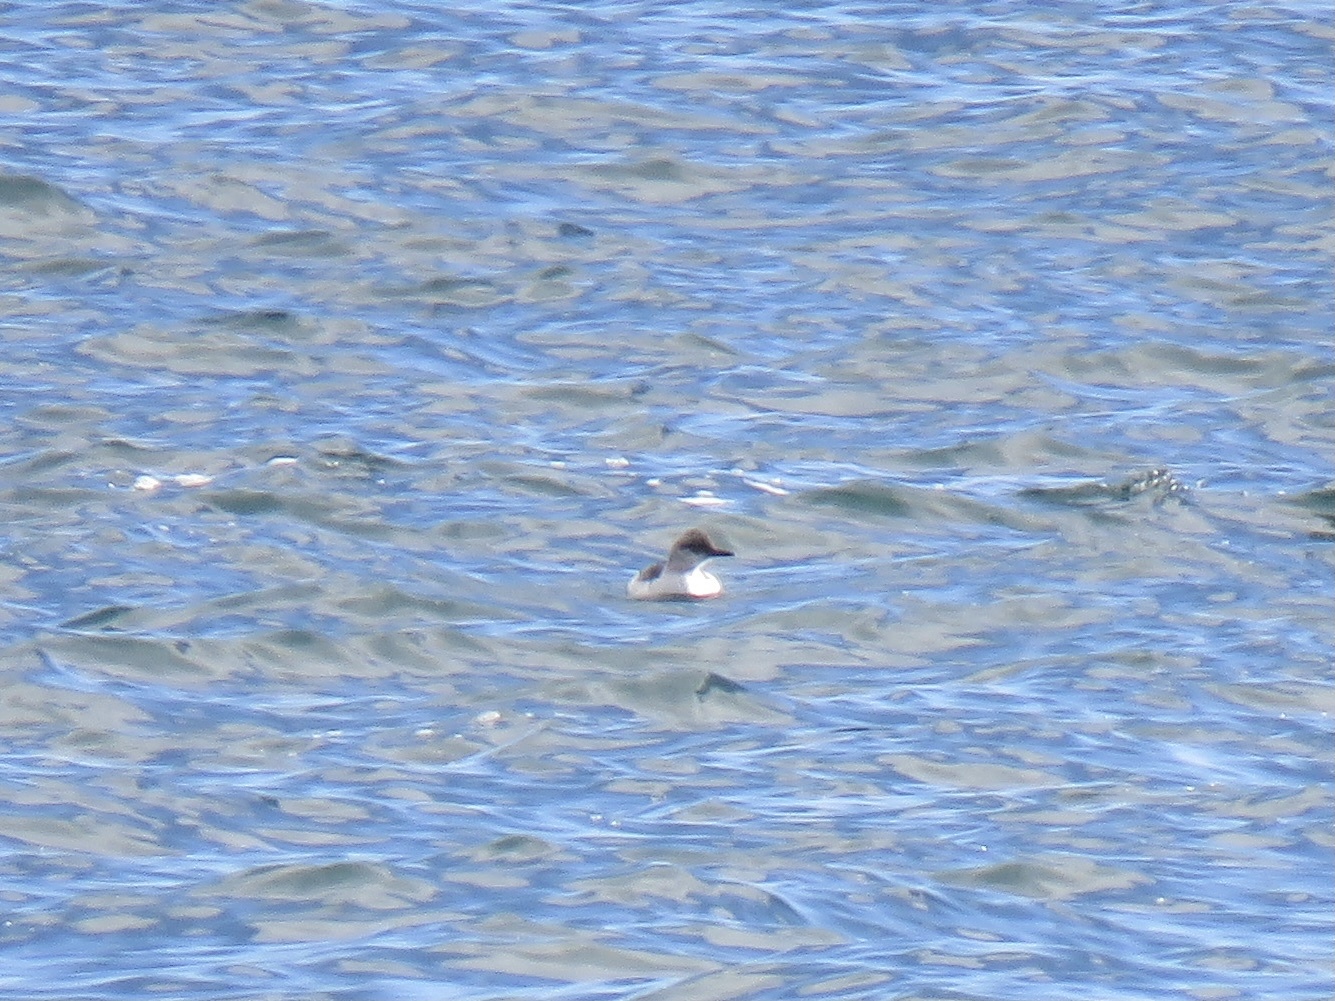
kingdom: Animalia
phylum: Chordata
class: Aves
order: Charadriiformes
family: Alcidae
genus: Cepphus
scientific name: Cepphus columba
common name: Pigeon guillemot
